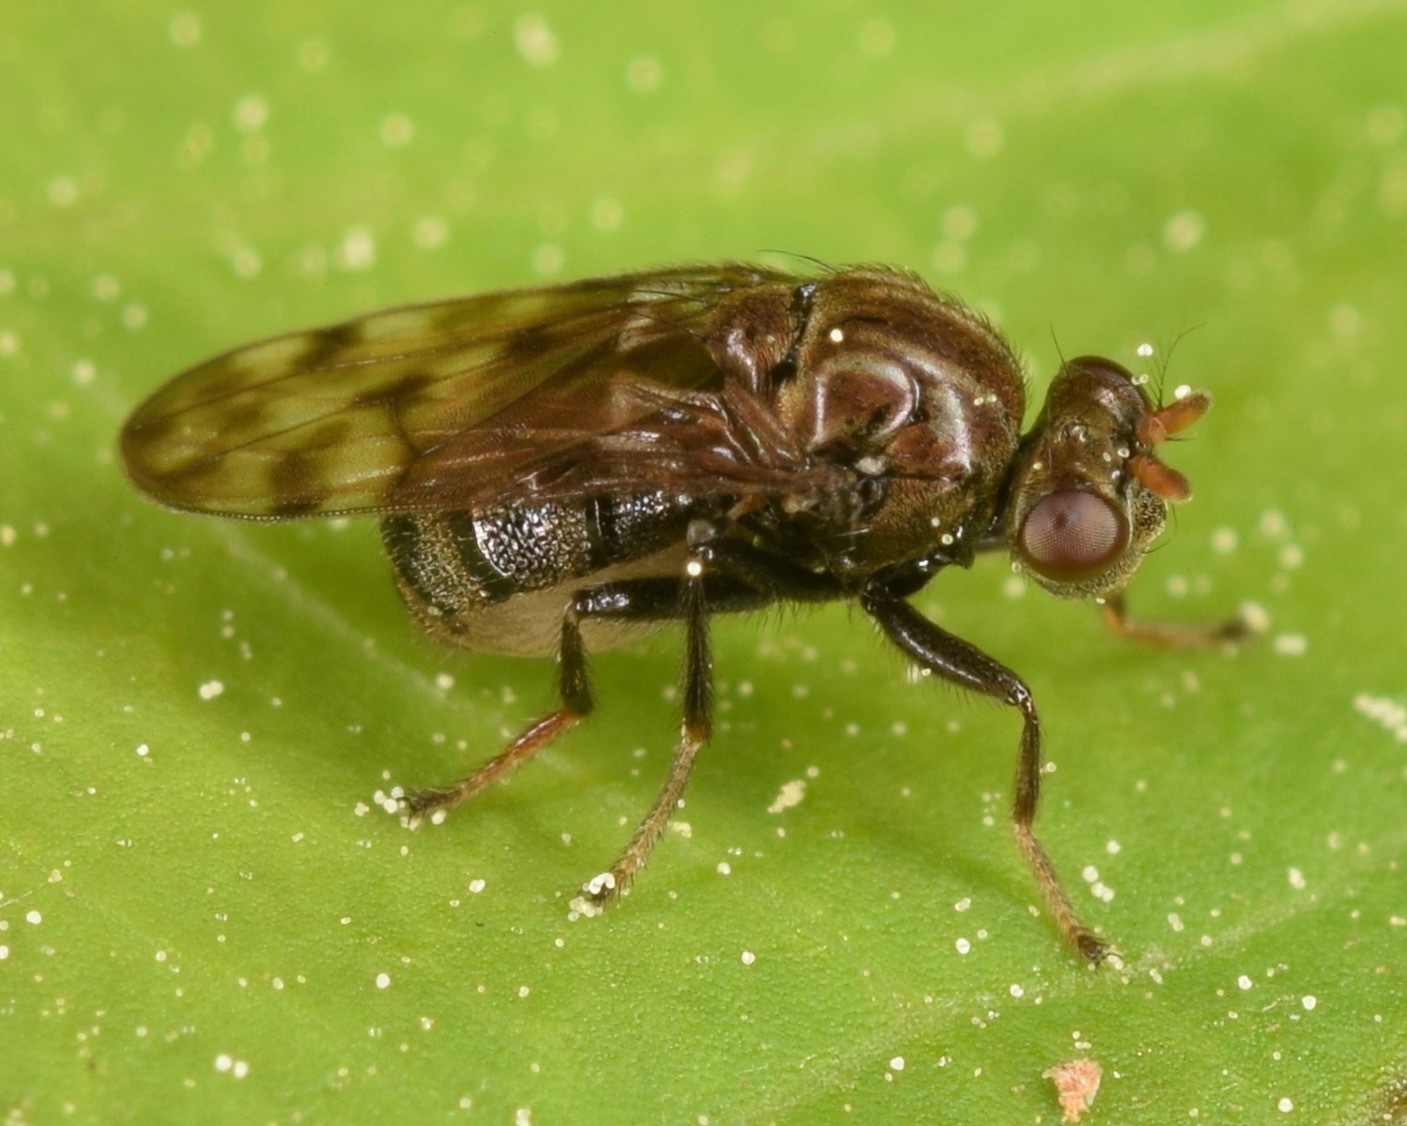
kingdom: Animalia
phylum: Arthropoda
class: Insecta
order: Diptera
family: Ephydridae
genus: Gastrops
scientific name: Gastrops nebulosus
